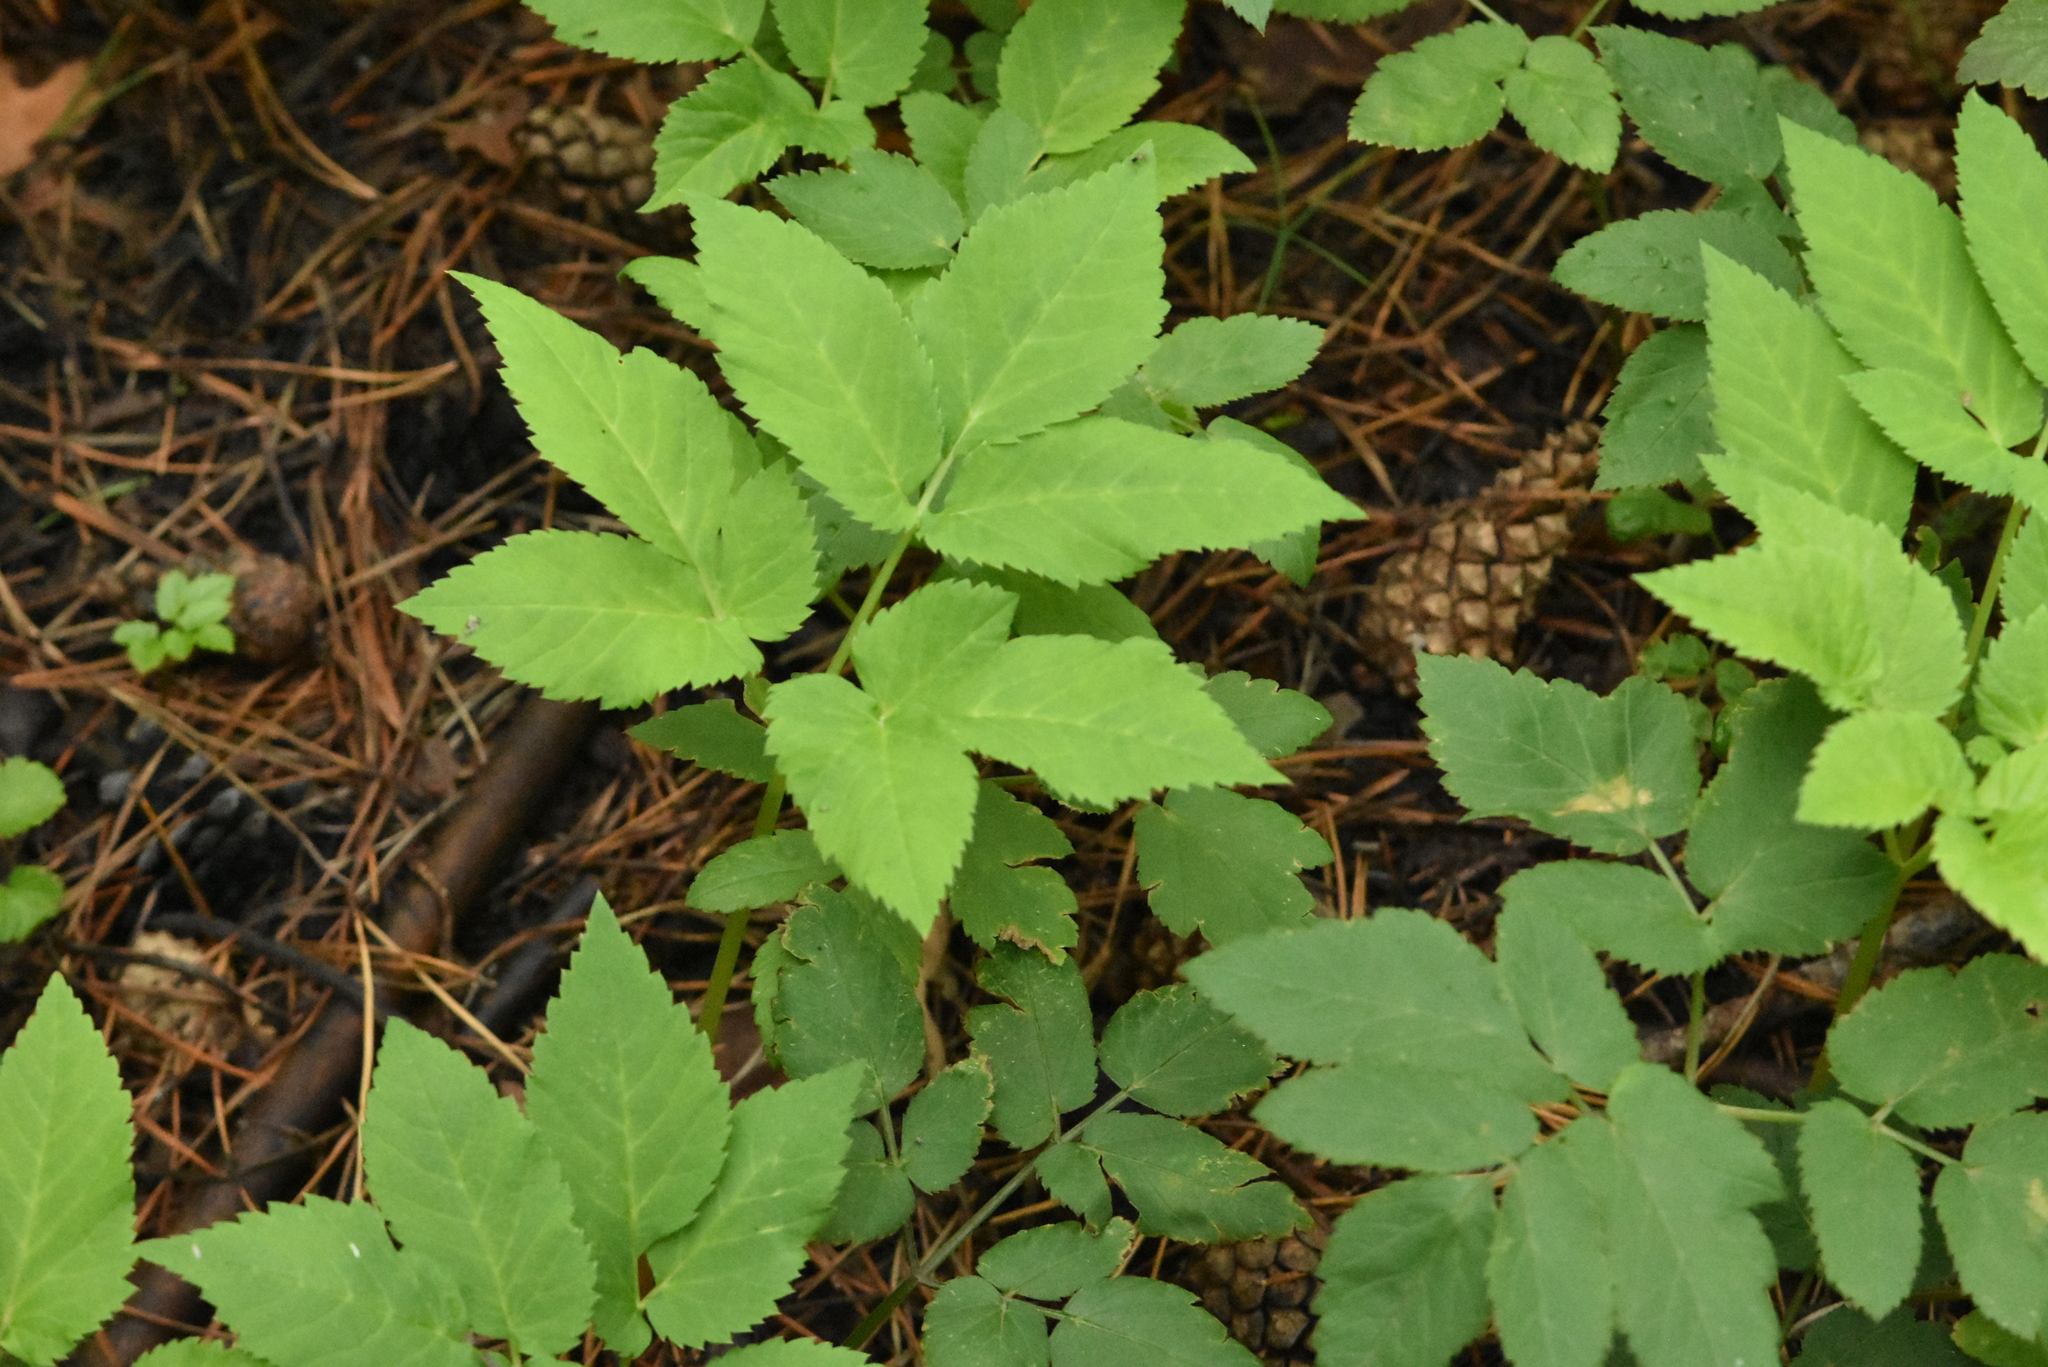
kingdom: Plantae
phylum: Tracheophyta
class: Magnoliopsida
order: Apiales
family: Apiaceae
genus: Aegopodium
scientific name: Aegopodium podagraria
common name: Ground-elder
